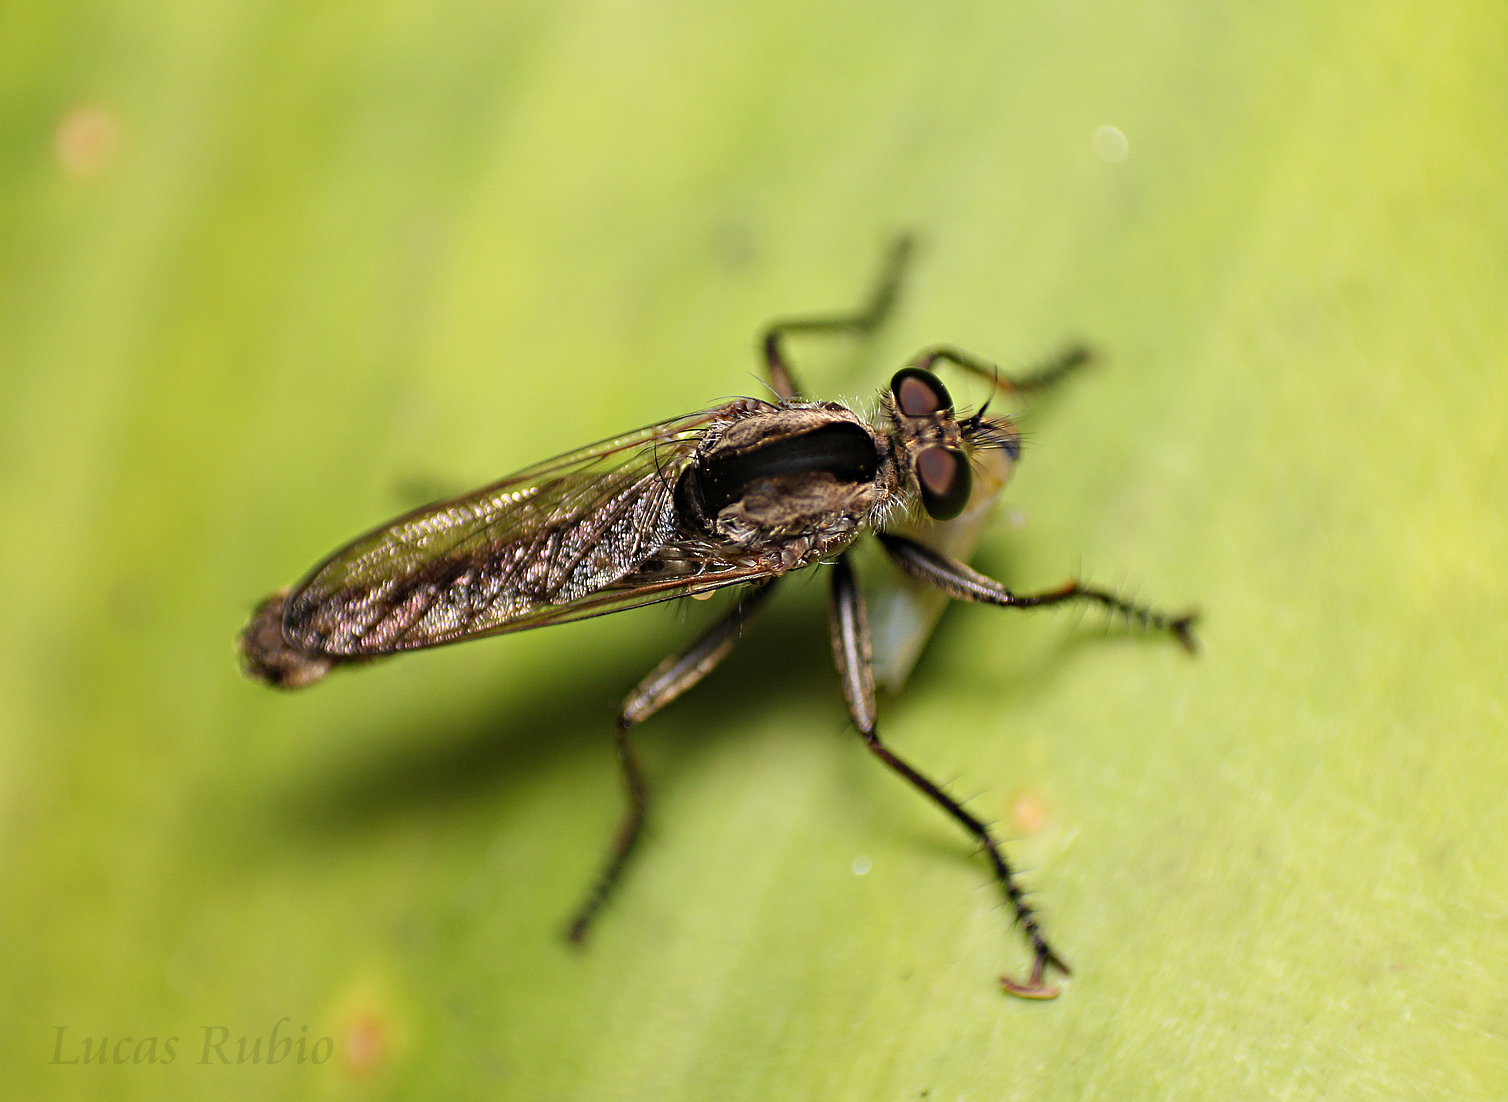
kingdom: Animalia
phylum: Arthropoda
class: Insecta
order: Diptera
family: Asilidae
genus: Eicherax
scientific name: Eicherax
